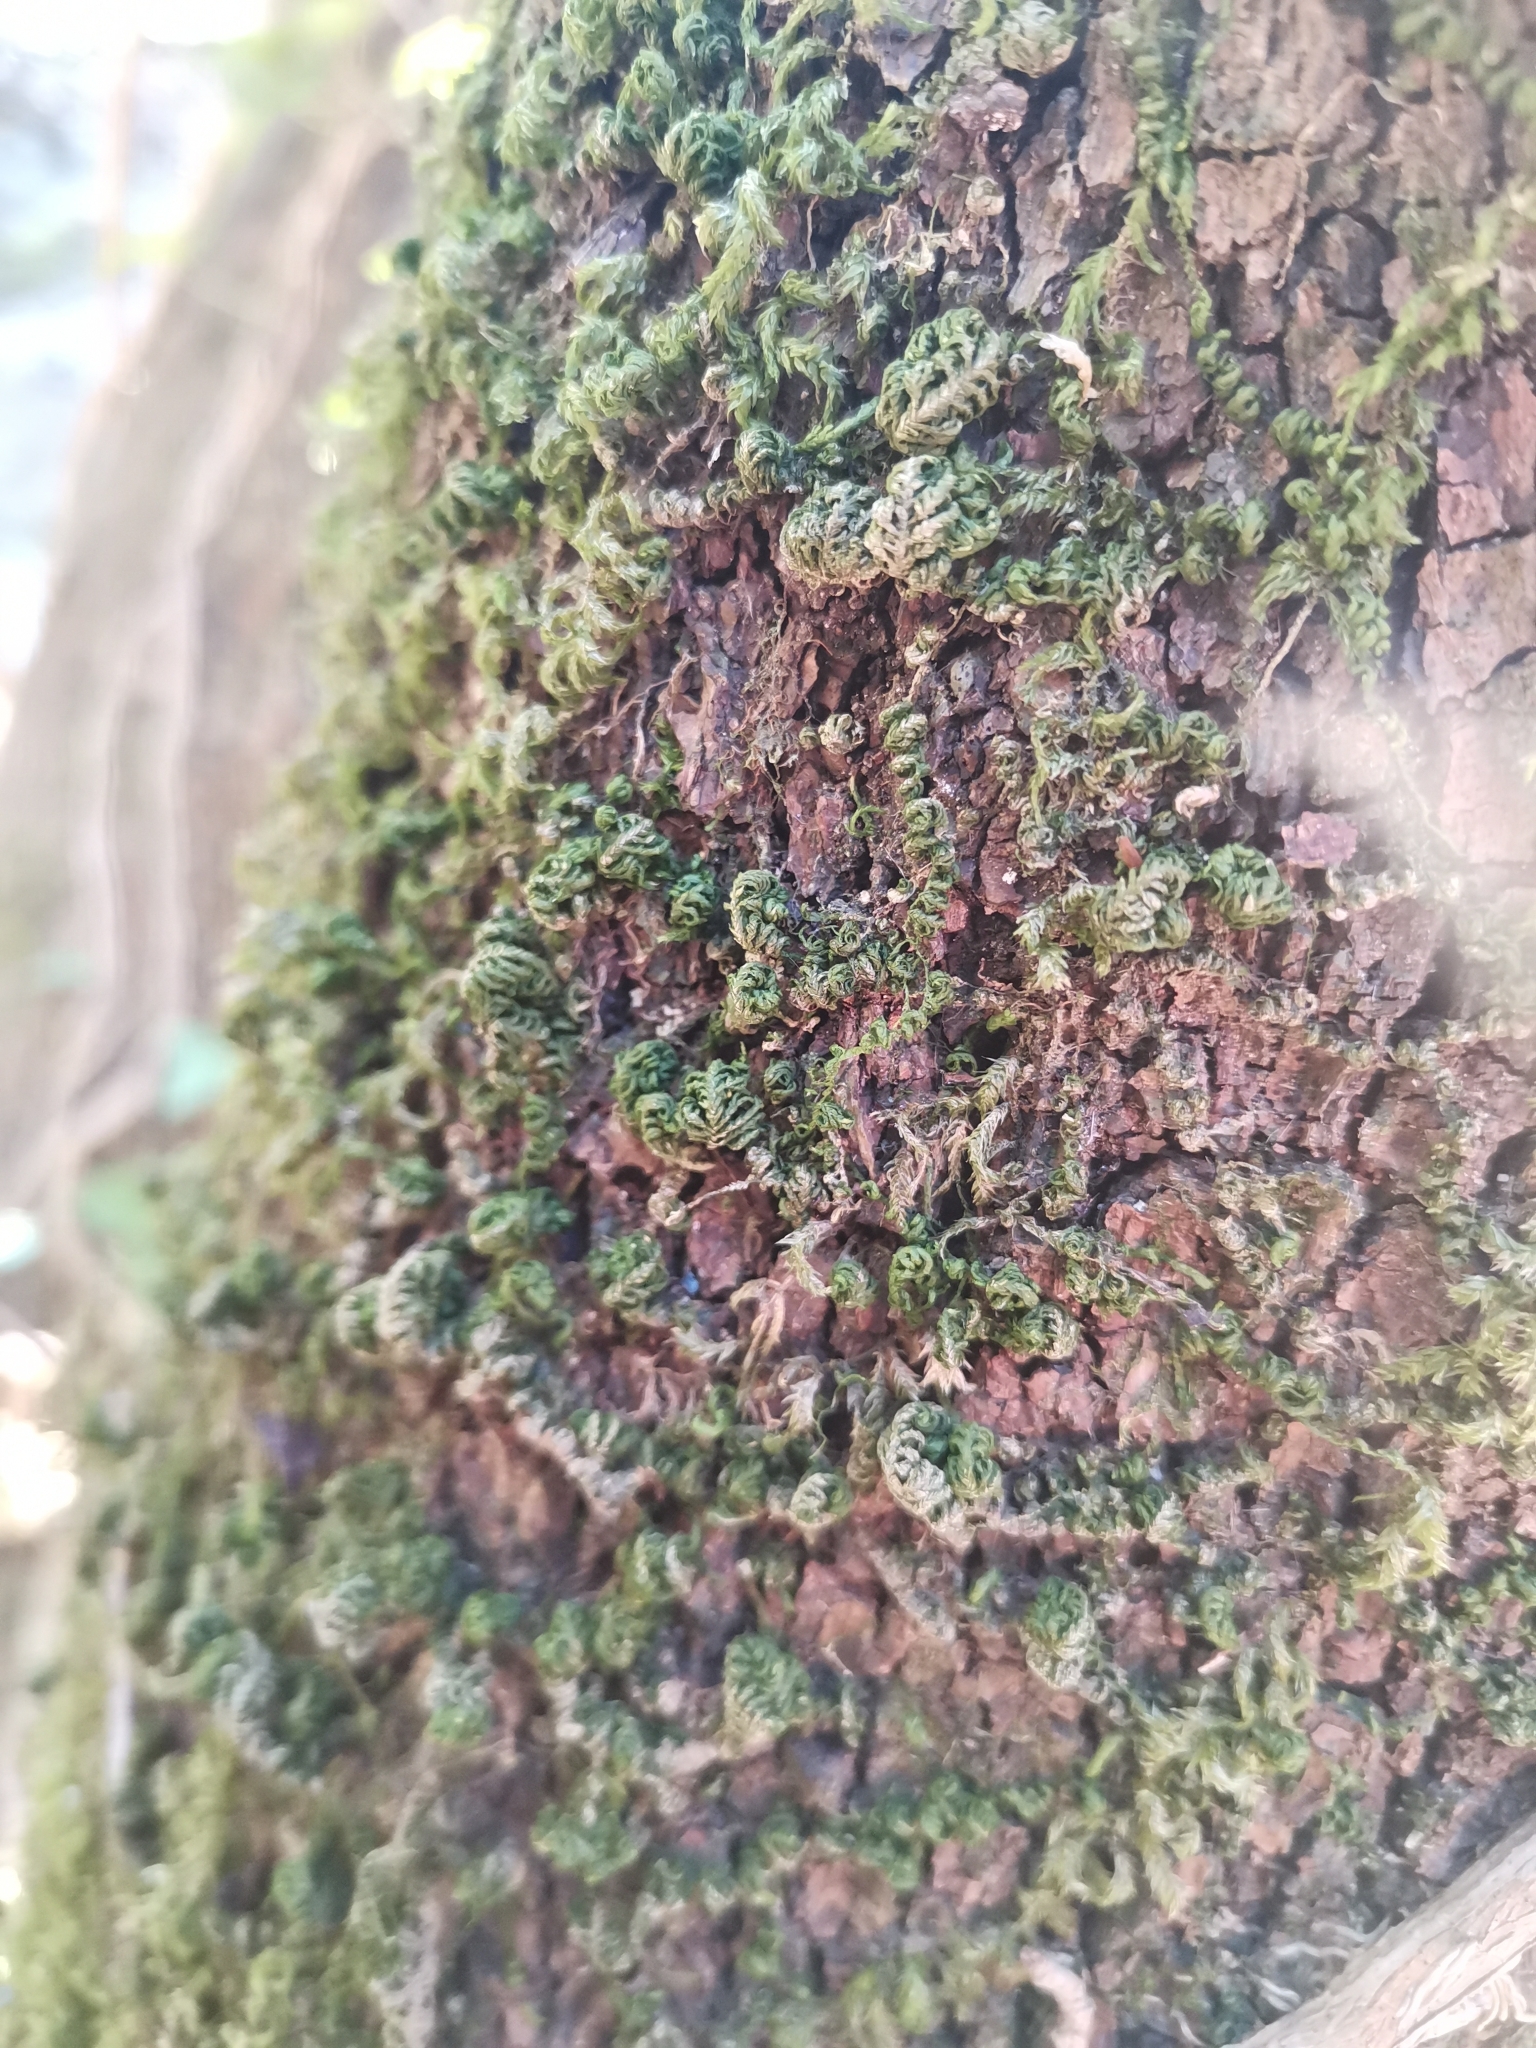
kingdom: Plantae
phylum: Bryophyta
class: Bryopsida
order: Hypnales
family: Neckeraceae
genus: Leptodon
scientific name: Leptodon smithii
